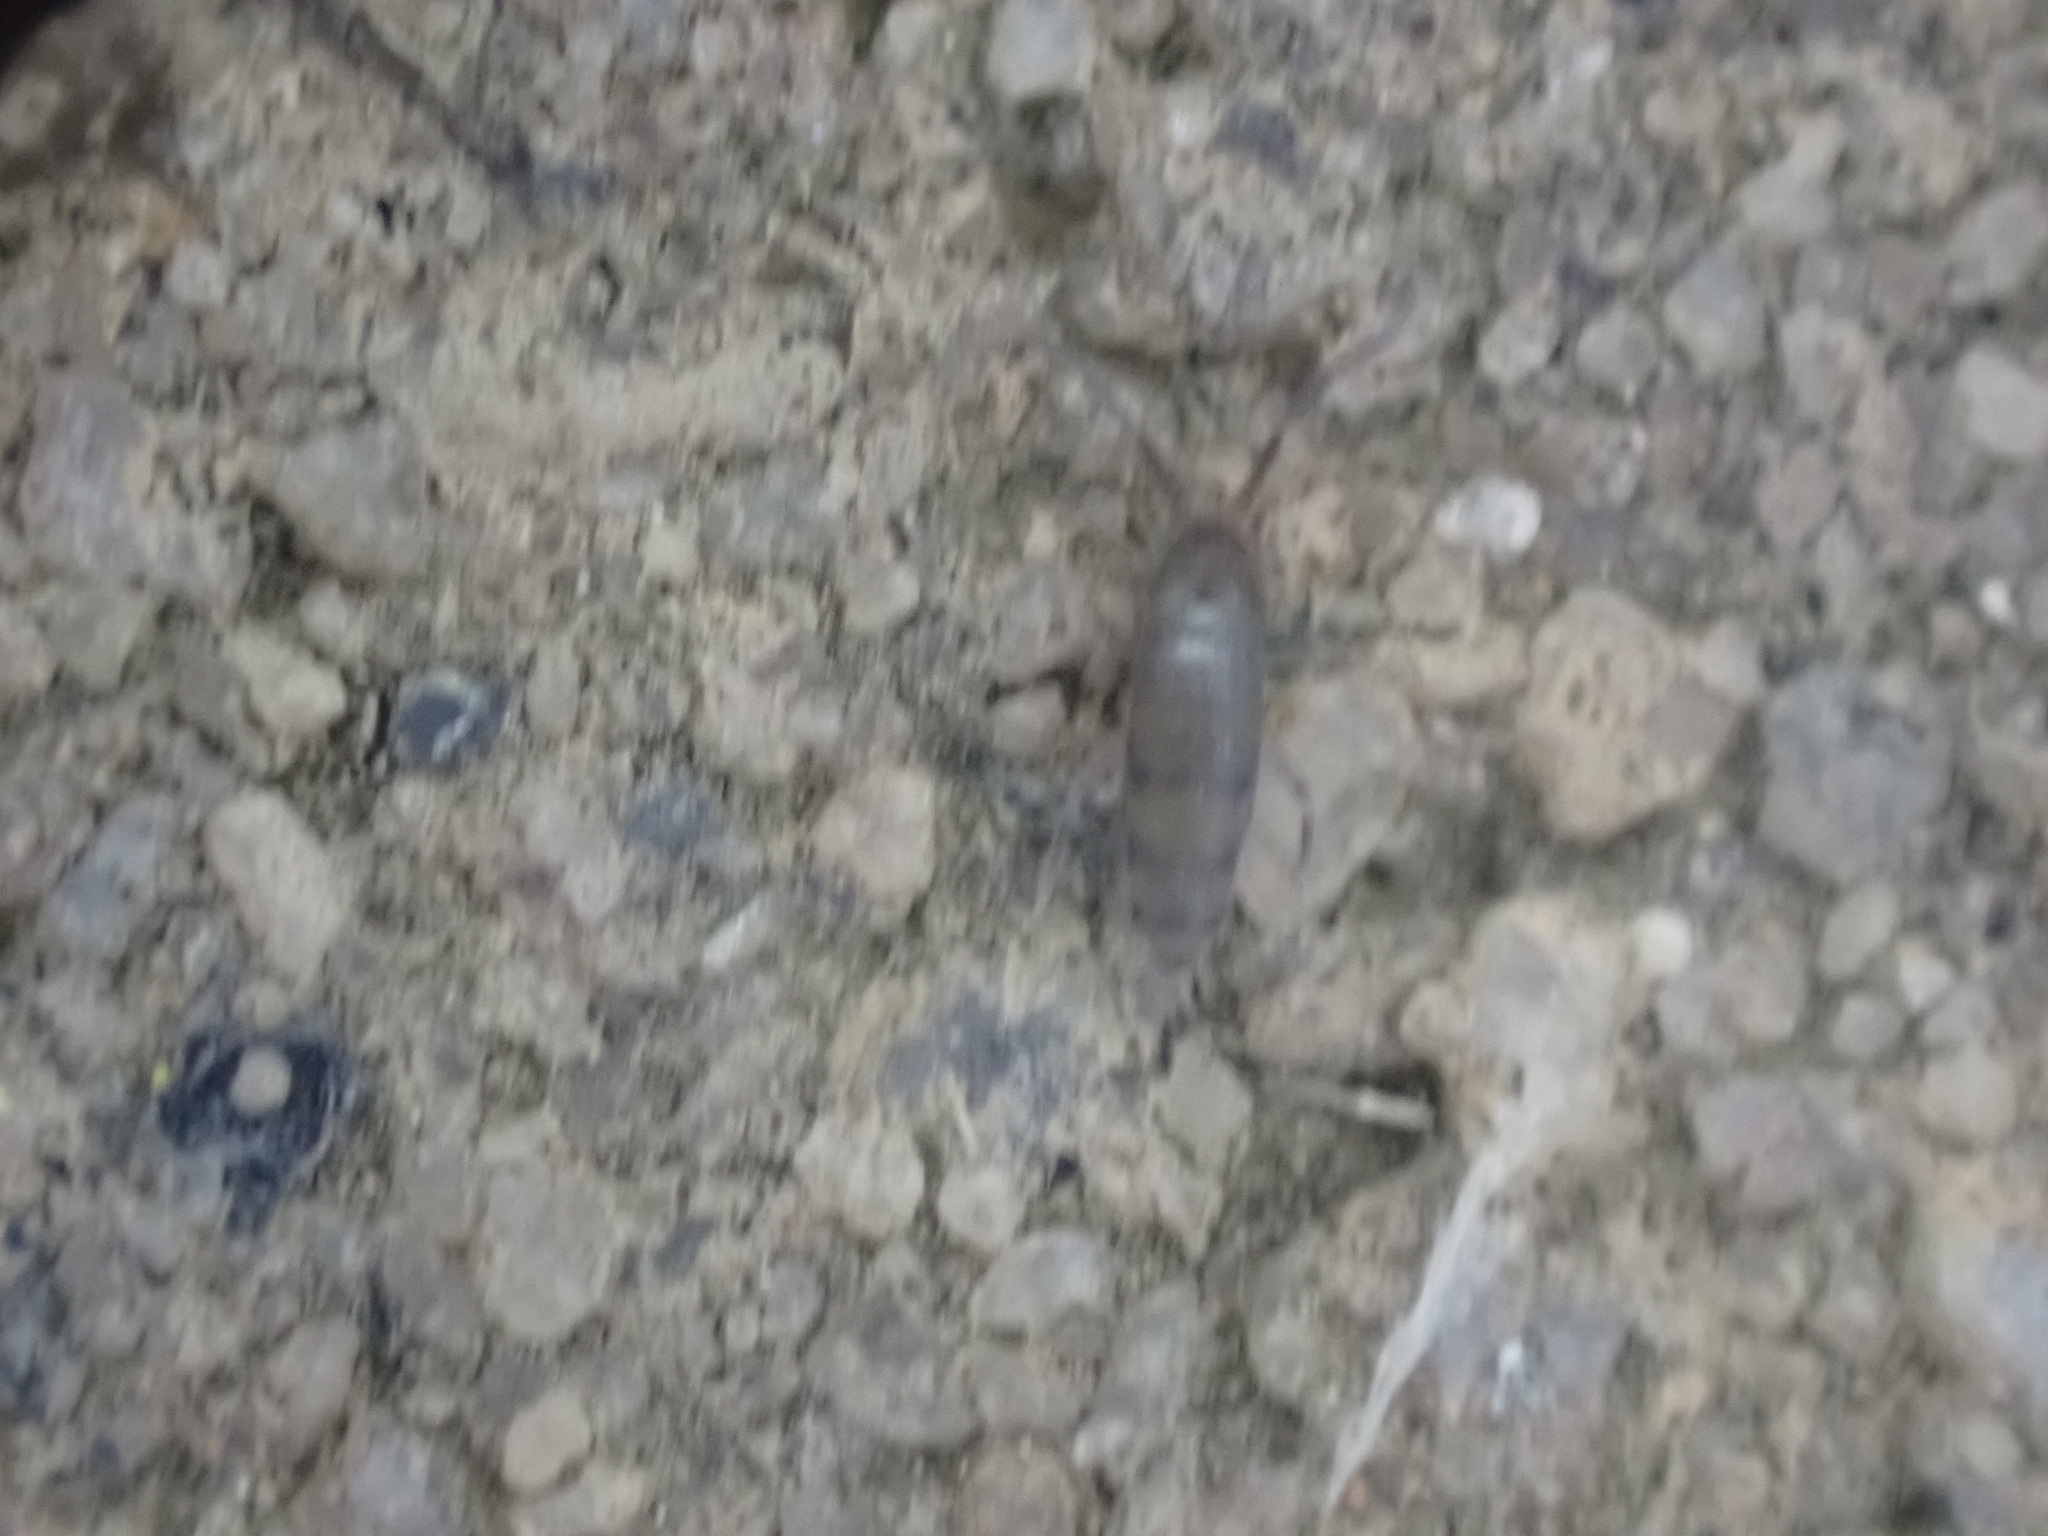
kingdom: Animalia
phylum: Arthropoda
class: Collembola
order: Entomobryomorpha
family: Entomobryidae
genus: Willowsia
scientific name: Willowsia nigromaculata
